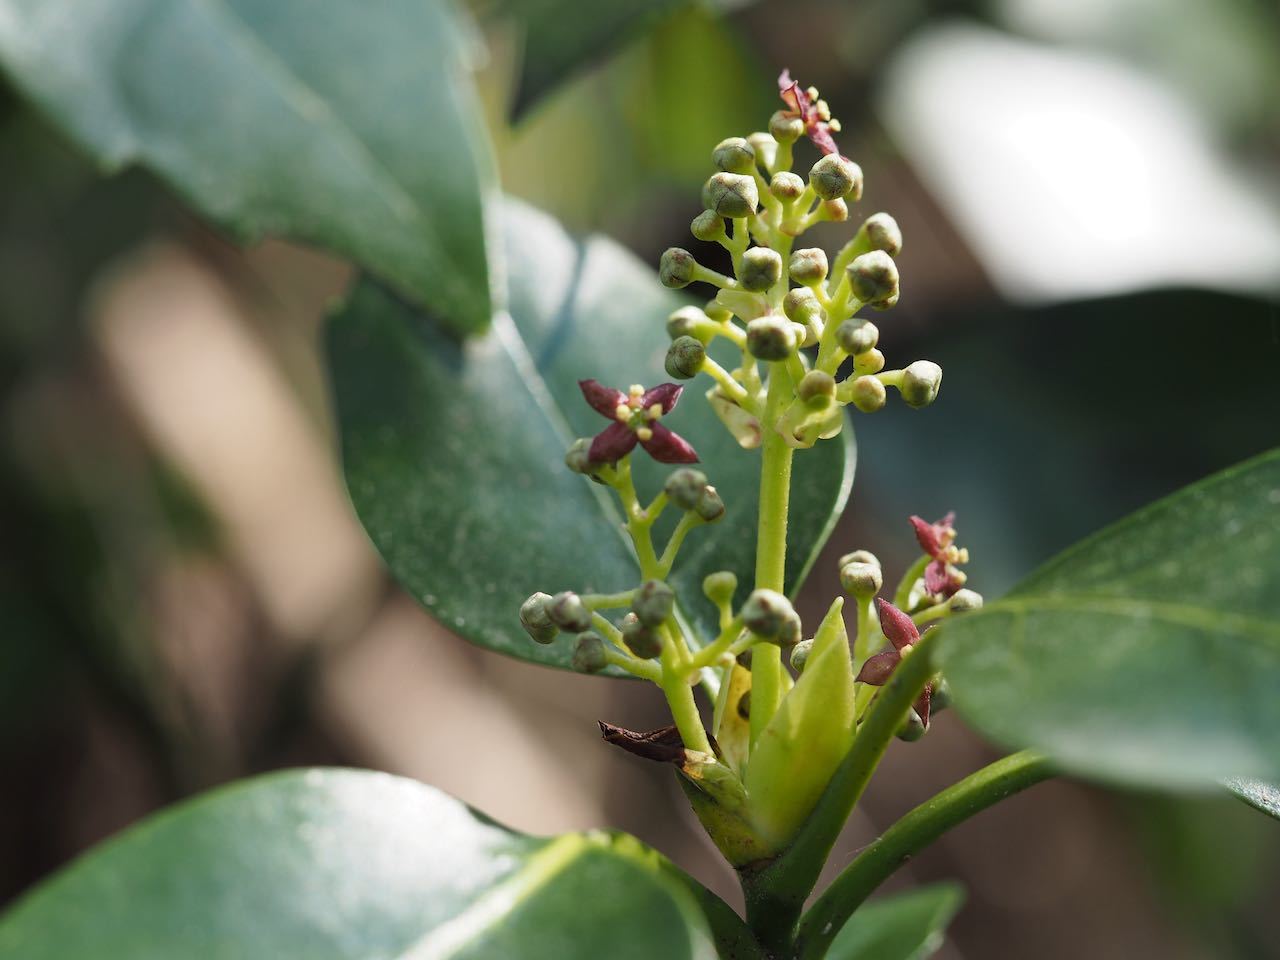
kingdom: Plantae
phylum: Tracheophyta
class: Magnoliopsida
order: Garryales
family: Garryaceae
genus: Aucuba
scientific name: Aucuba japonica
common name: Spotted-laurel
